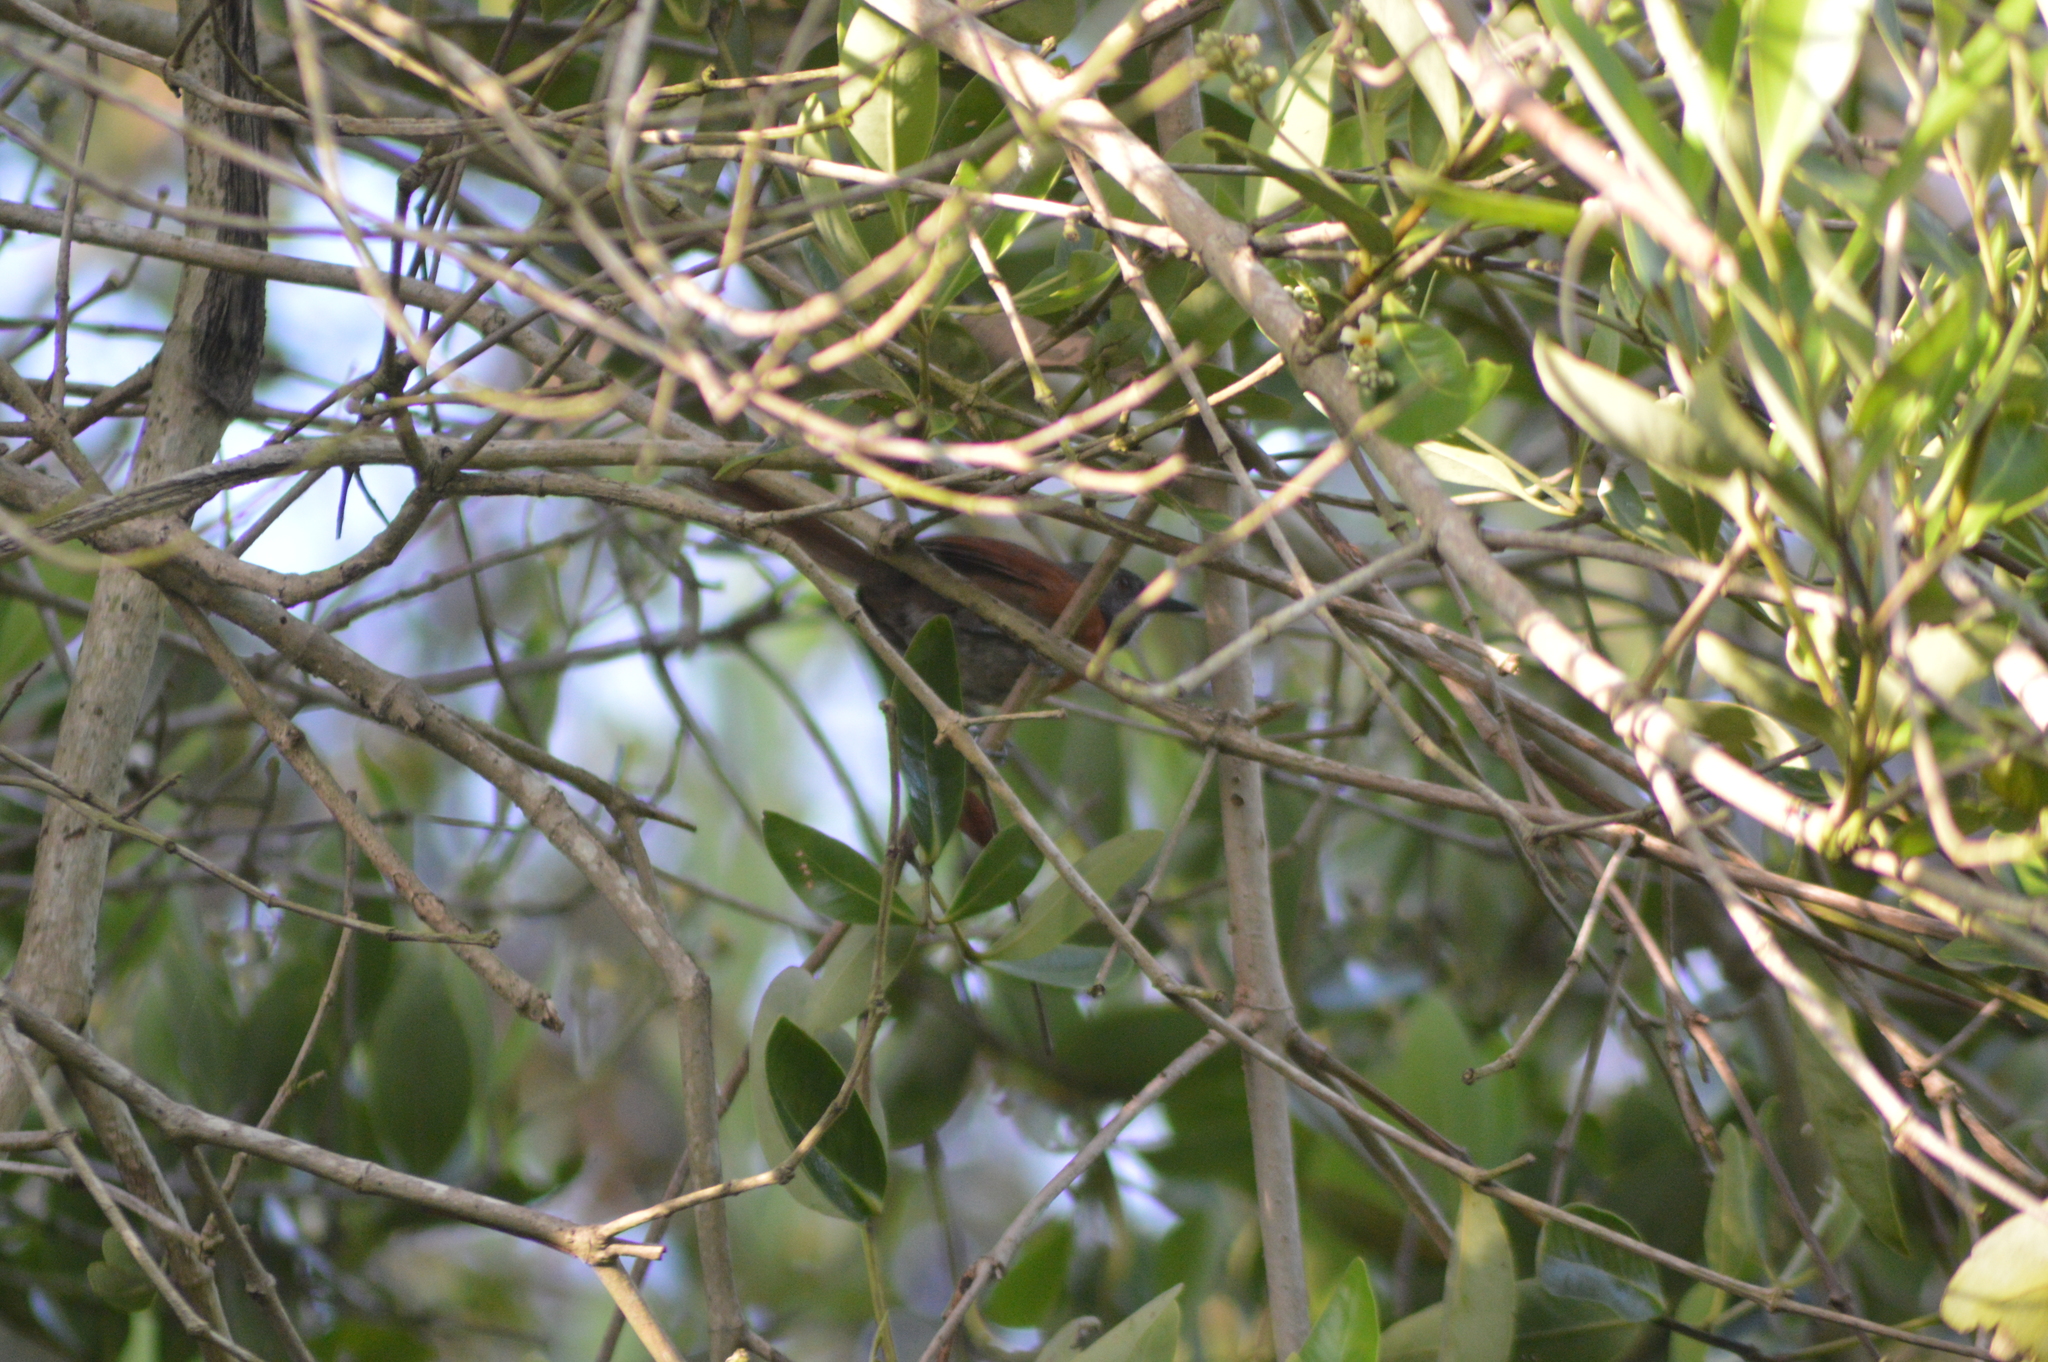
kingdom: Animalia
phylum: Chordata
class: Aves
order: Passeriformes
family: Furnariidae
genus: Synallaxis
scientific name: Synallaxis erythrothorax
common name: Rufous-breasted spinetail
